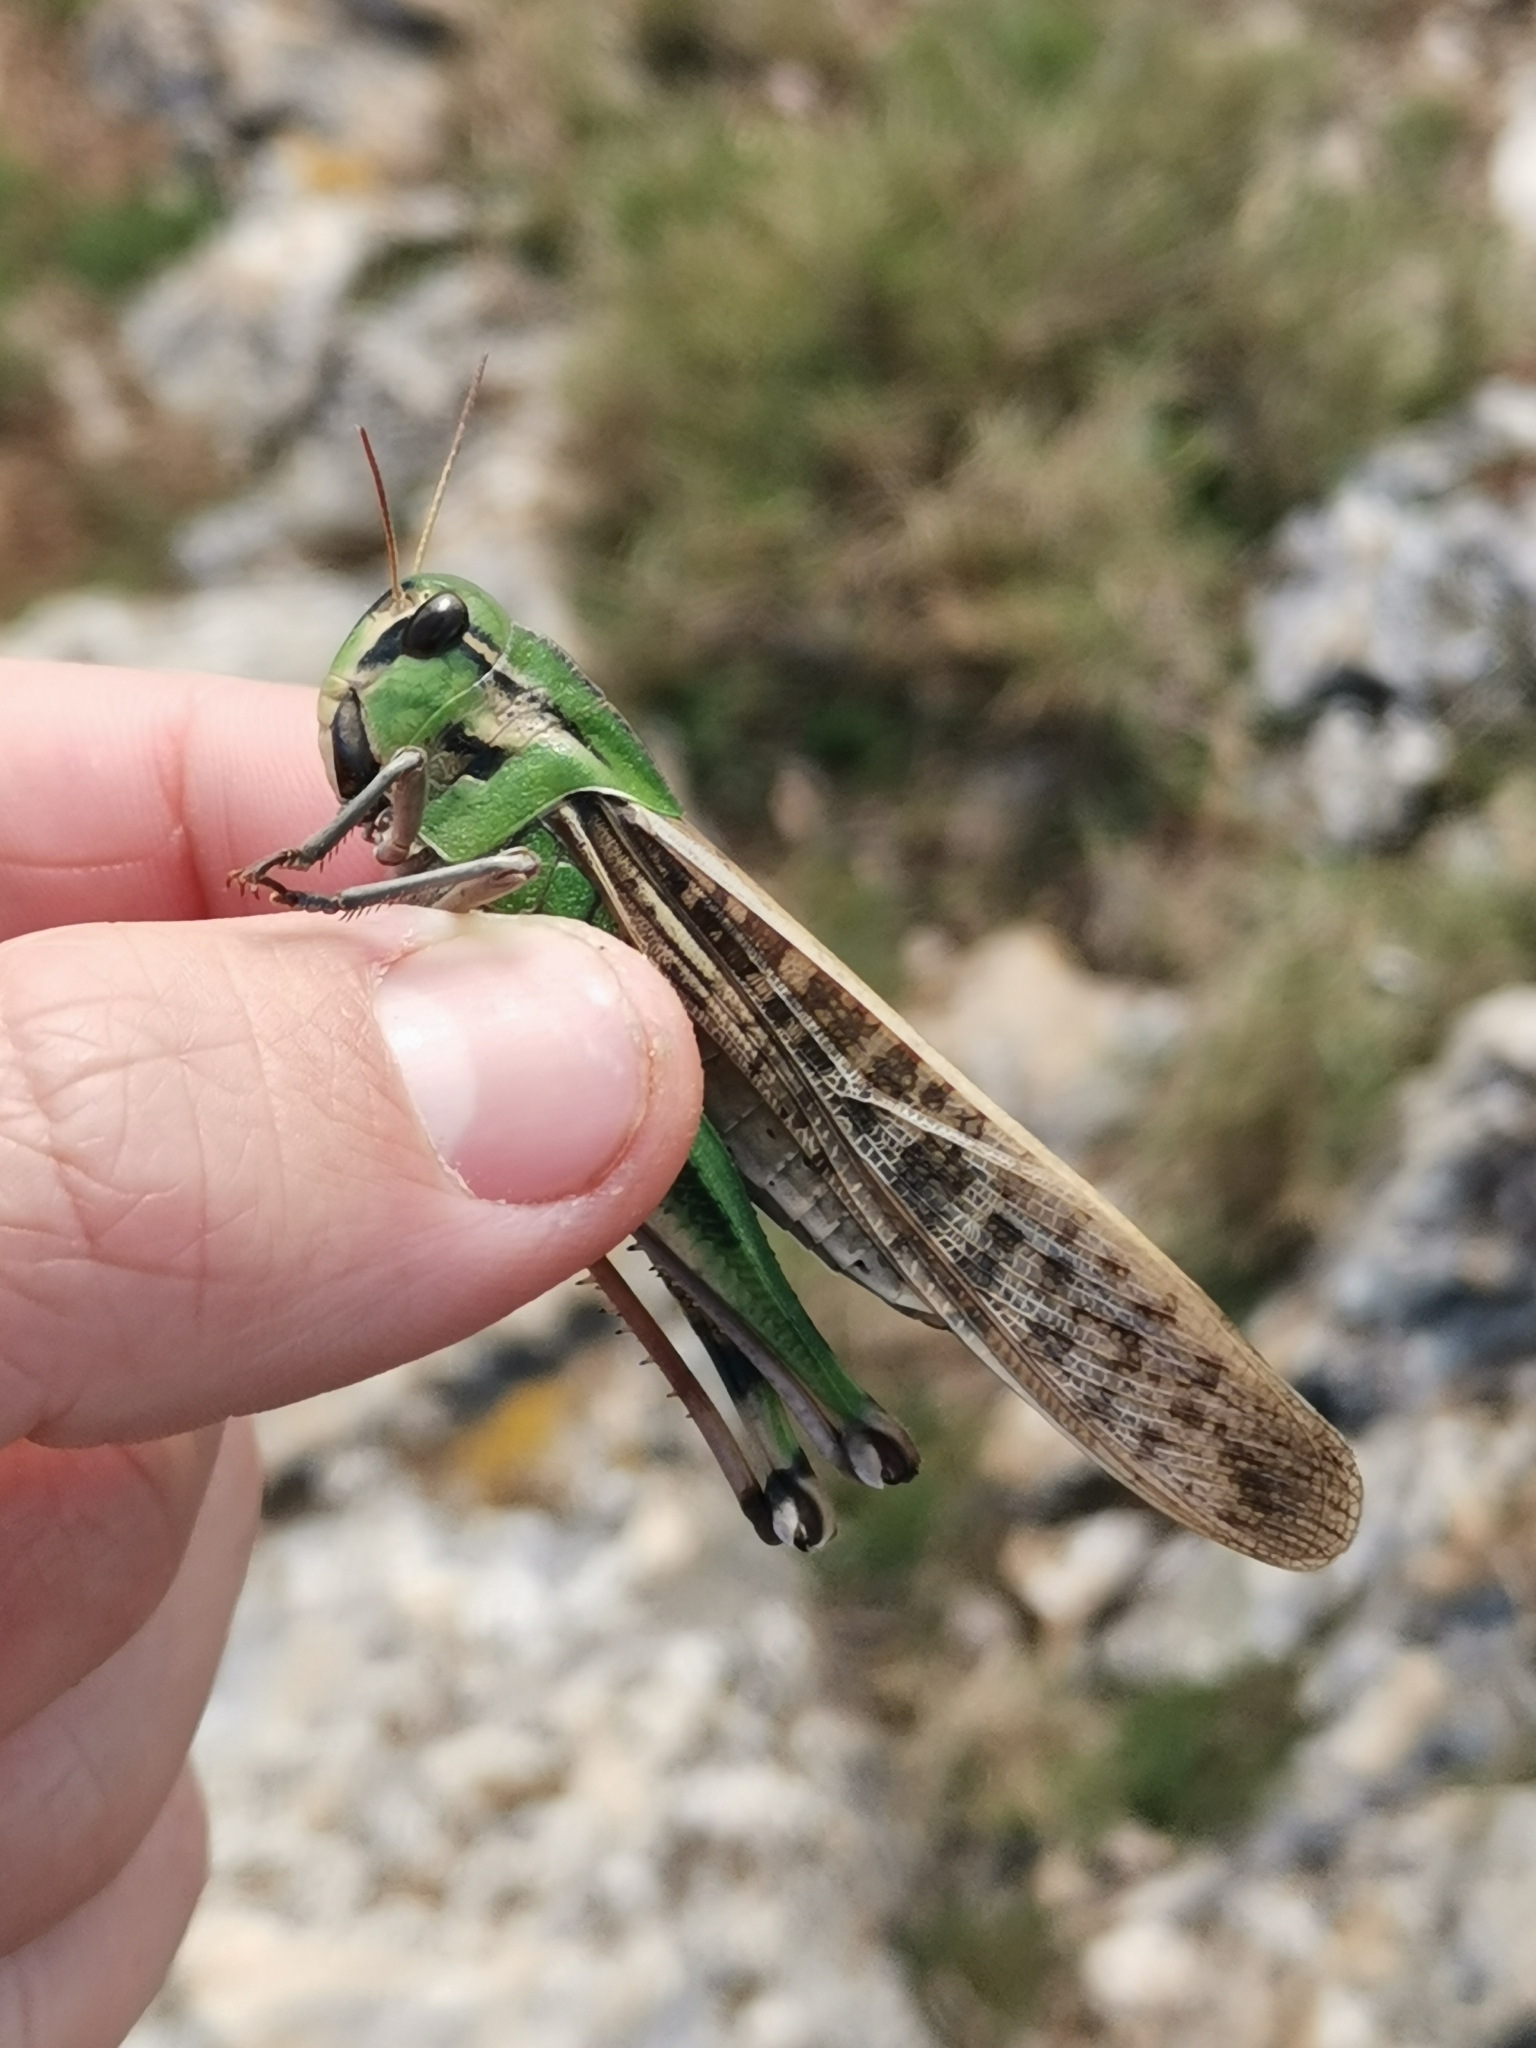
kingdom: Animalia
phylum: Arthropoda
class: Insecta
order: Orthoptera
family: Acrididae
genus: Locusta
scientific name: Locusta migratoria
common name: Migratory locust
